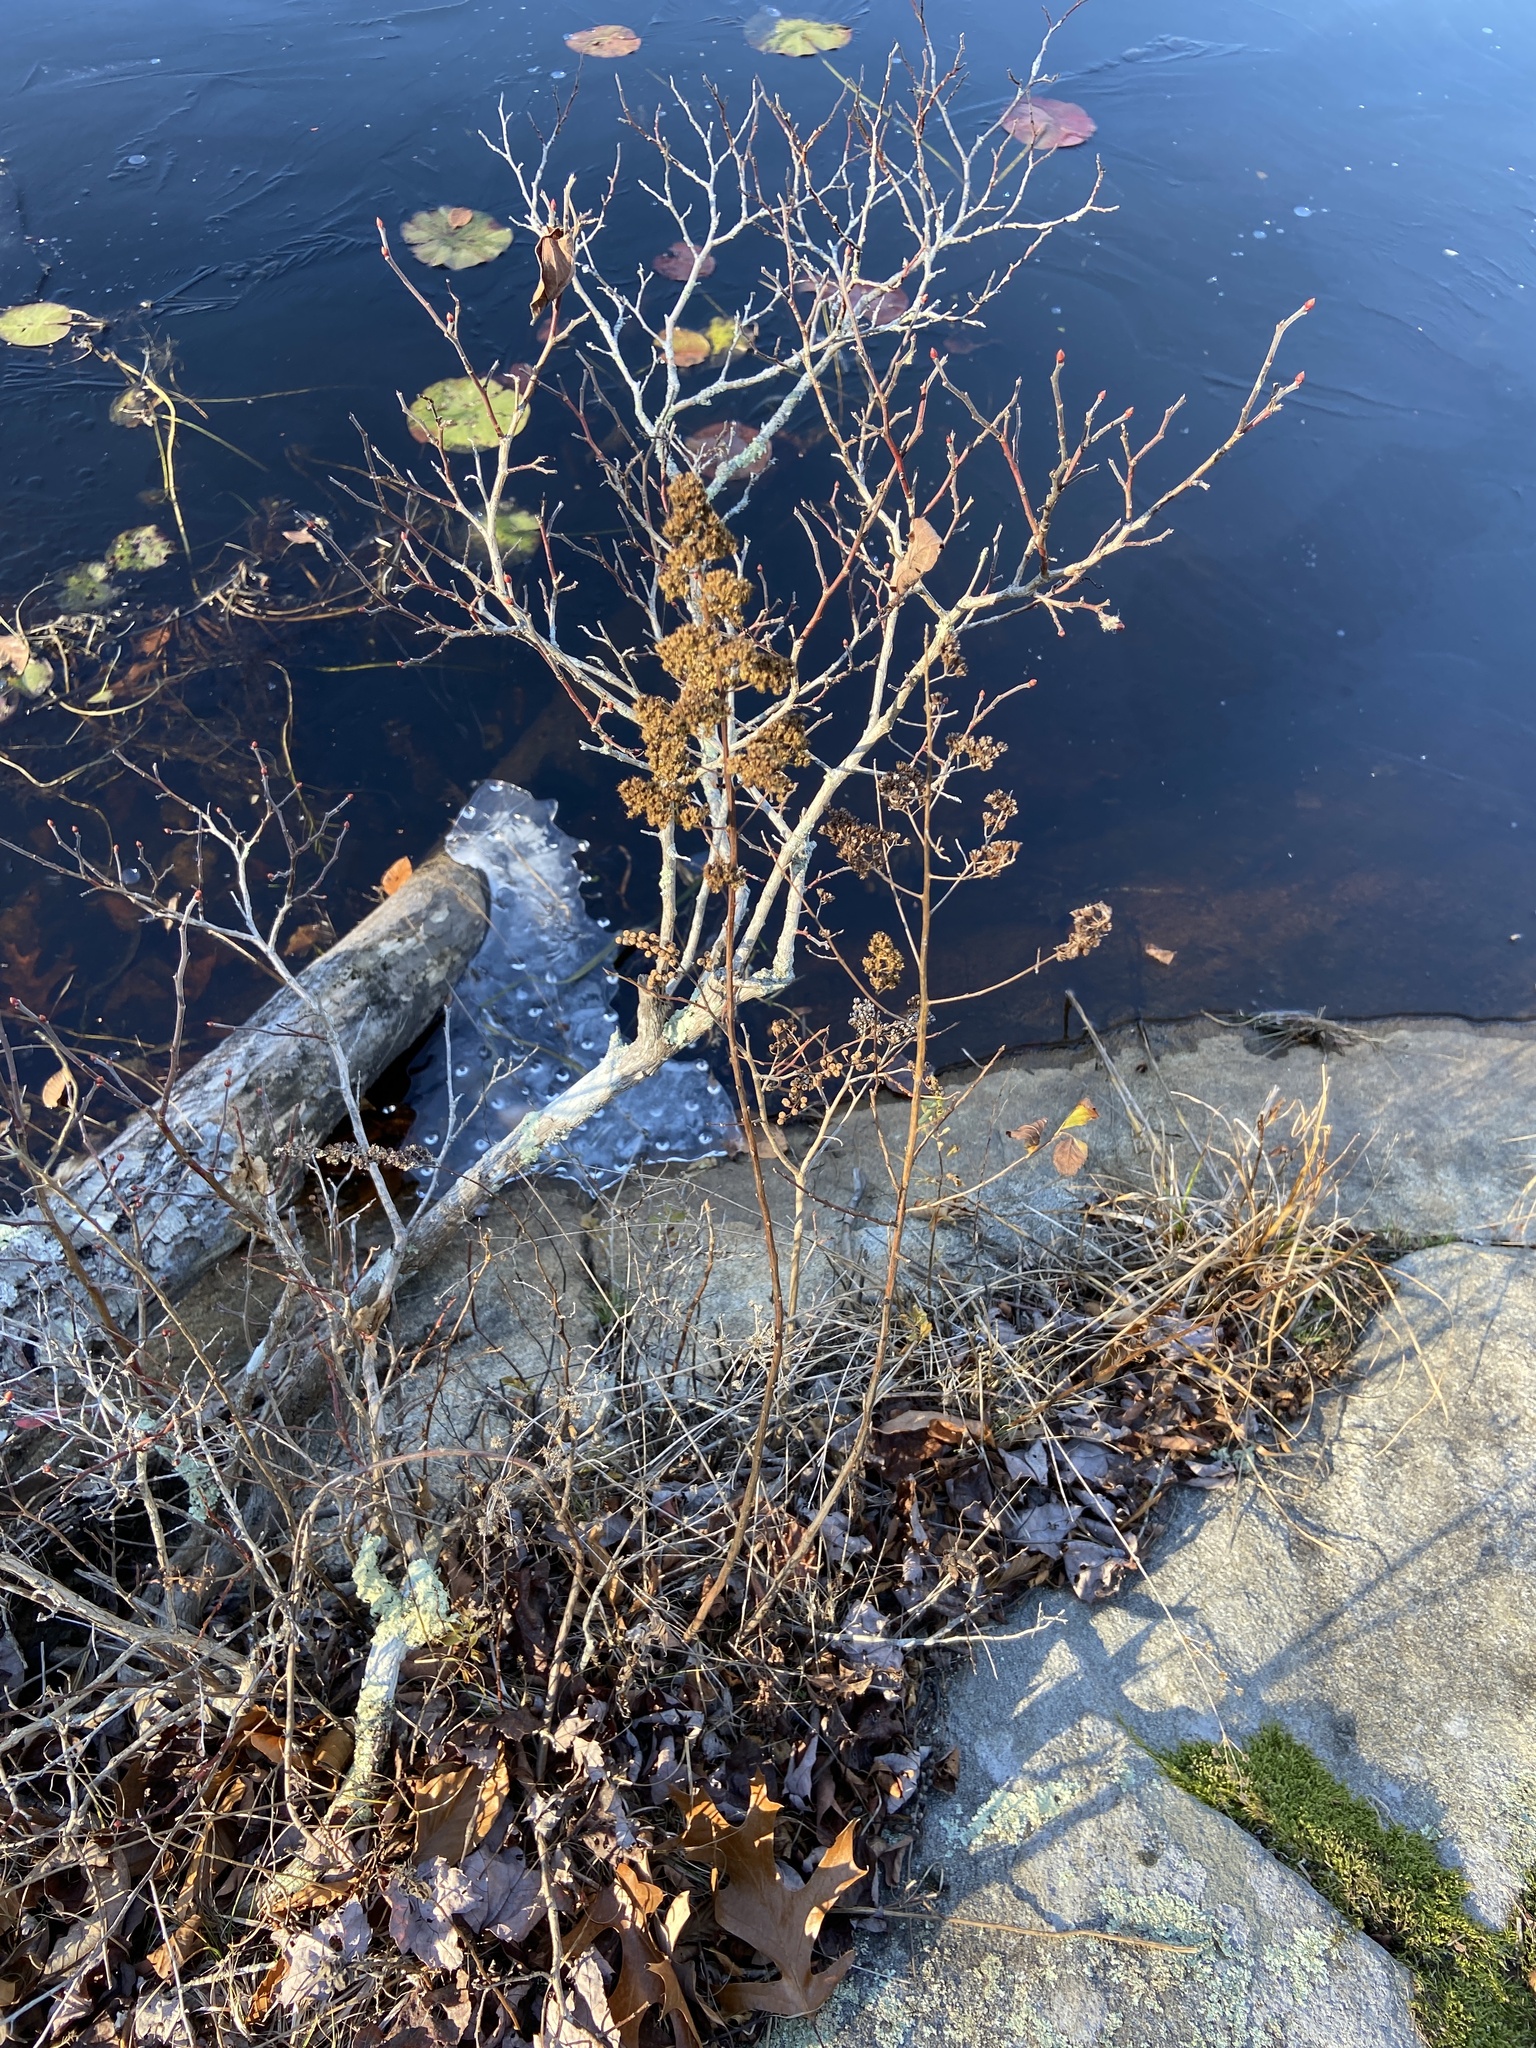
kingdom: Plantae
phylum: Tracheophyta
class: Magnoliopsida
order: Rosales
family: Rosaceae
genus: Spiraea
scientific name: Spiraea alba
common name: Pale bridewort
